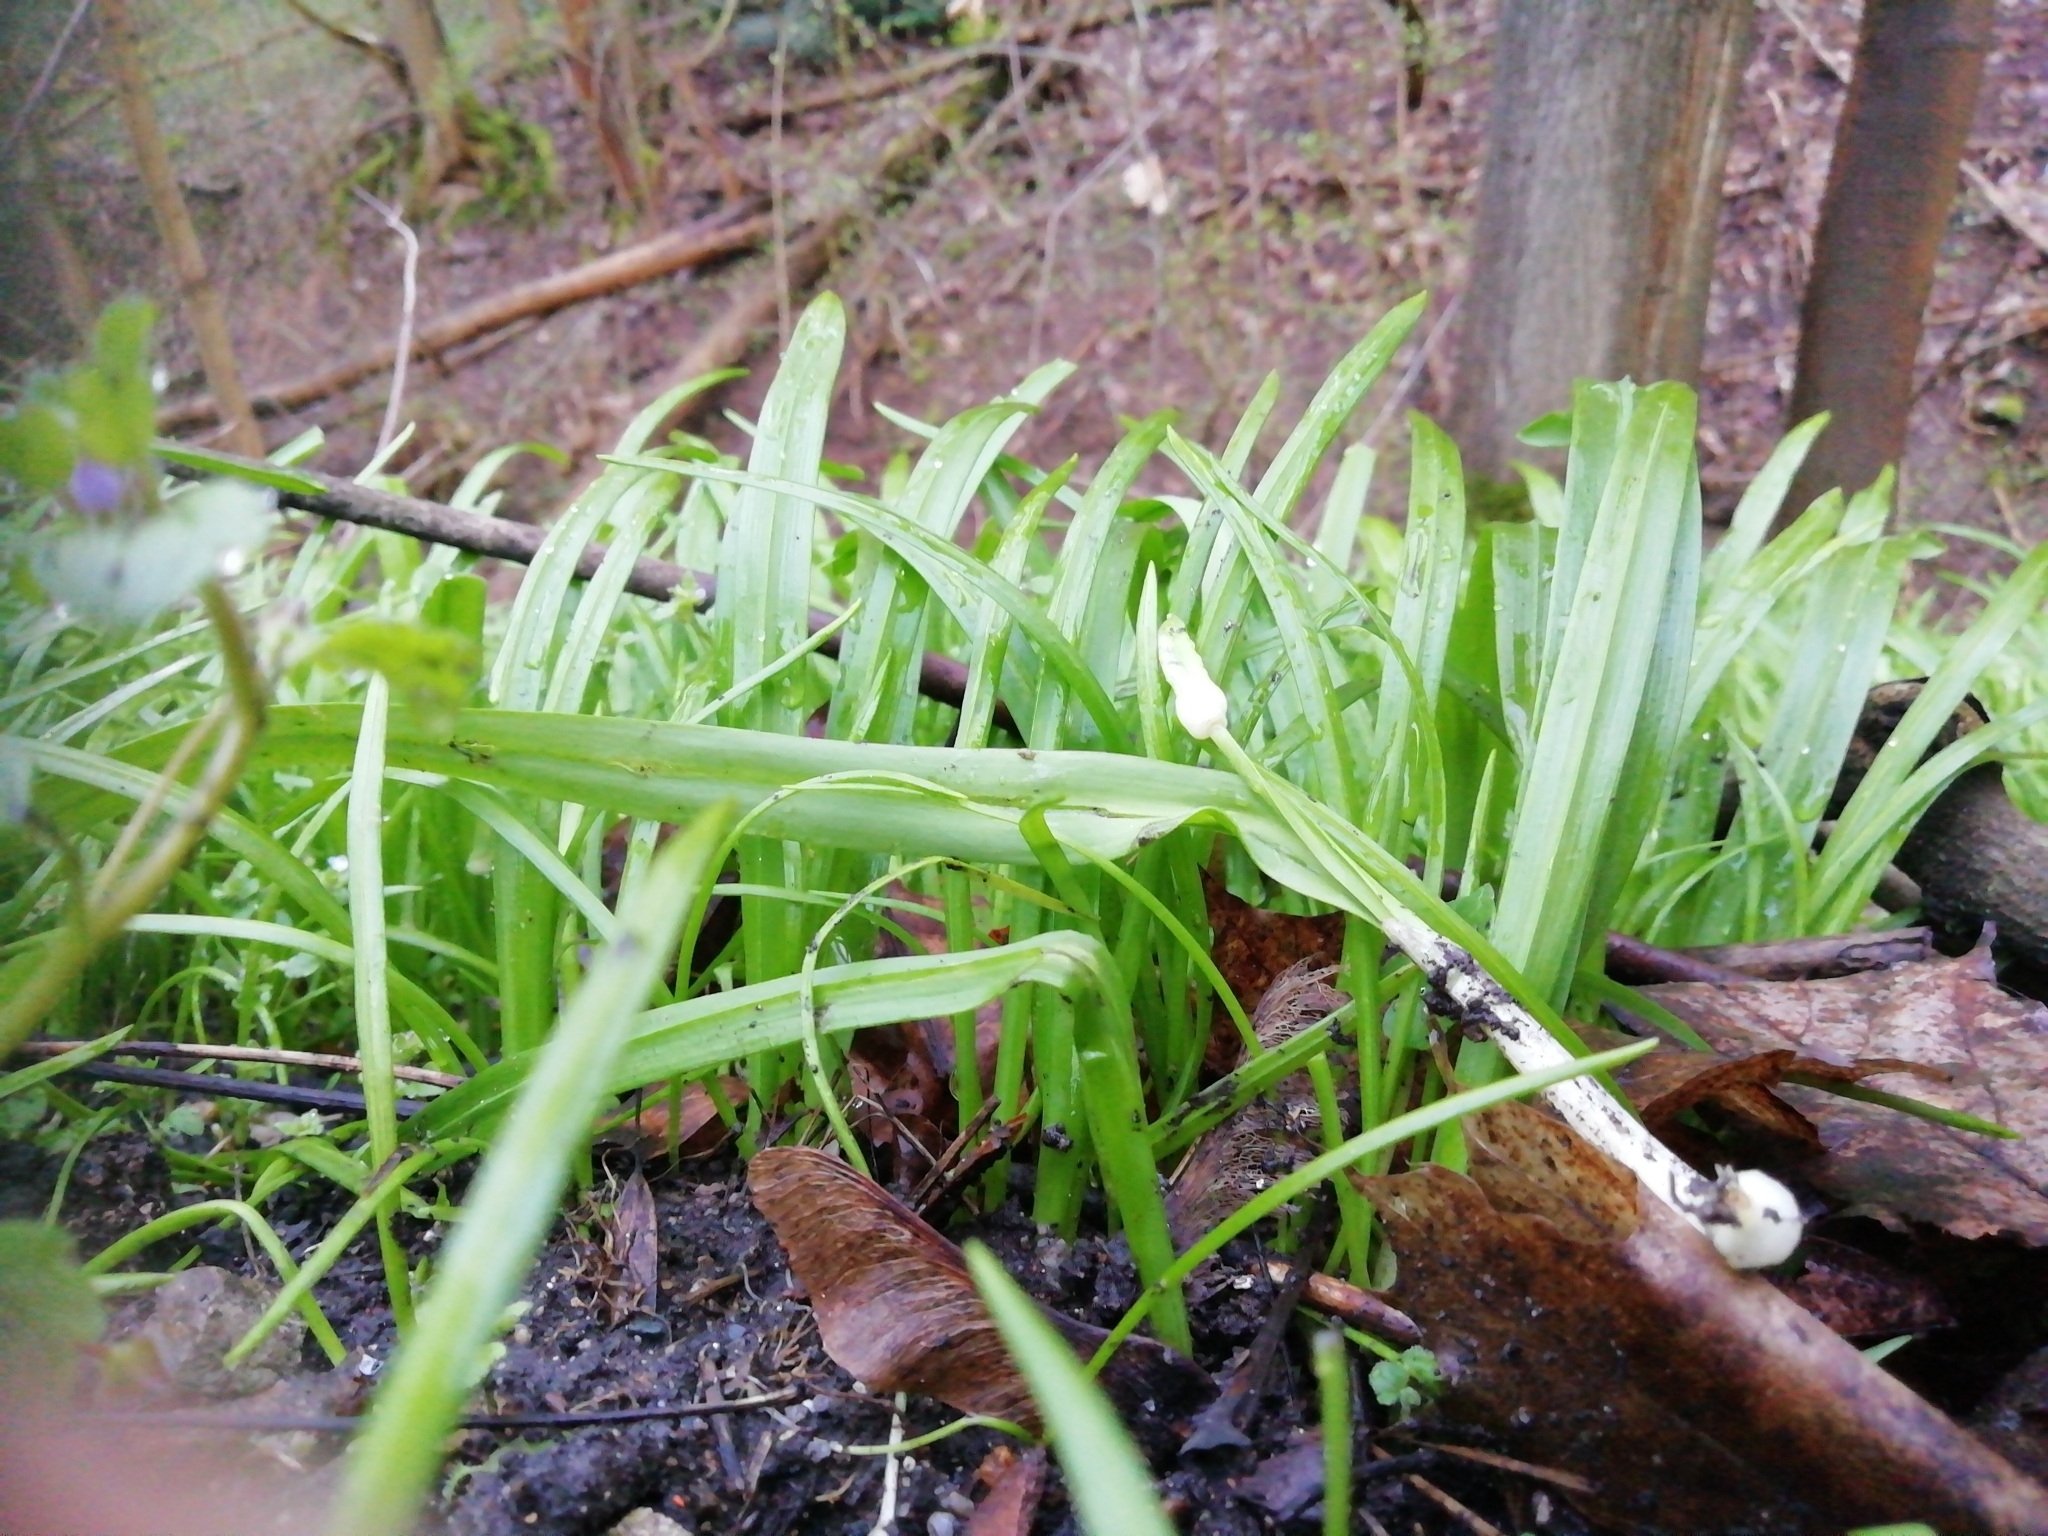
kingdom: Plantae
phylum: Tracheophyta
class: Liliopsida
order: Asparagales
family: Amaryllidaceae
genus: Allium
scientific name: Allium paradoxum
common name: Few-flowered garlic
